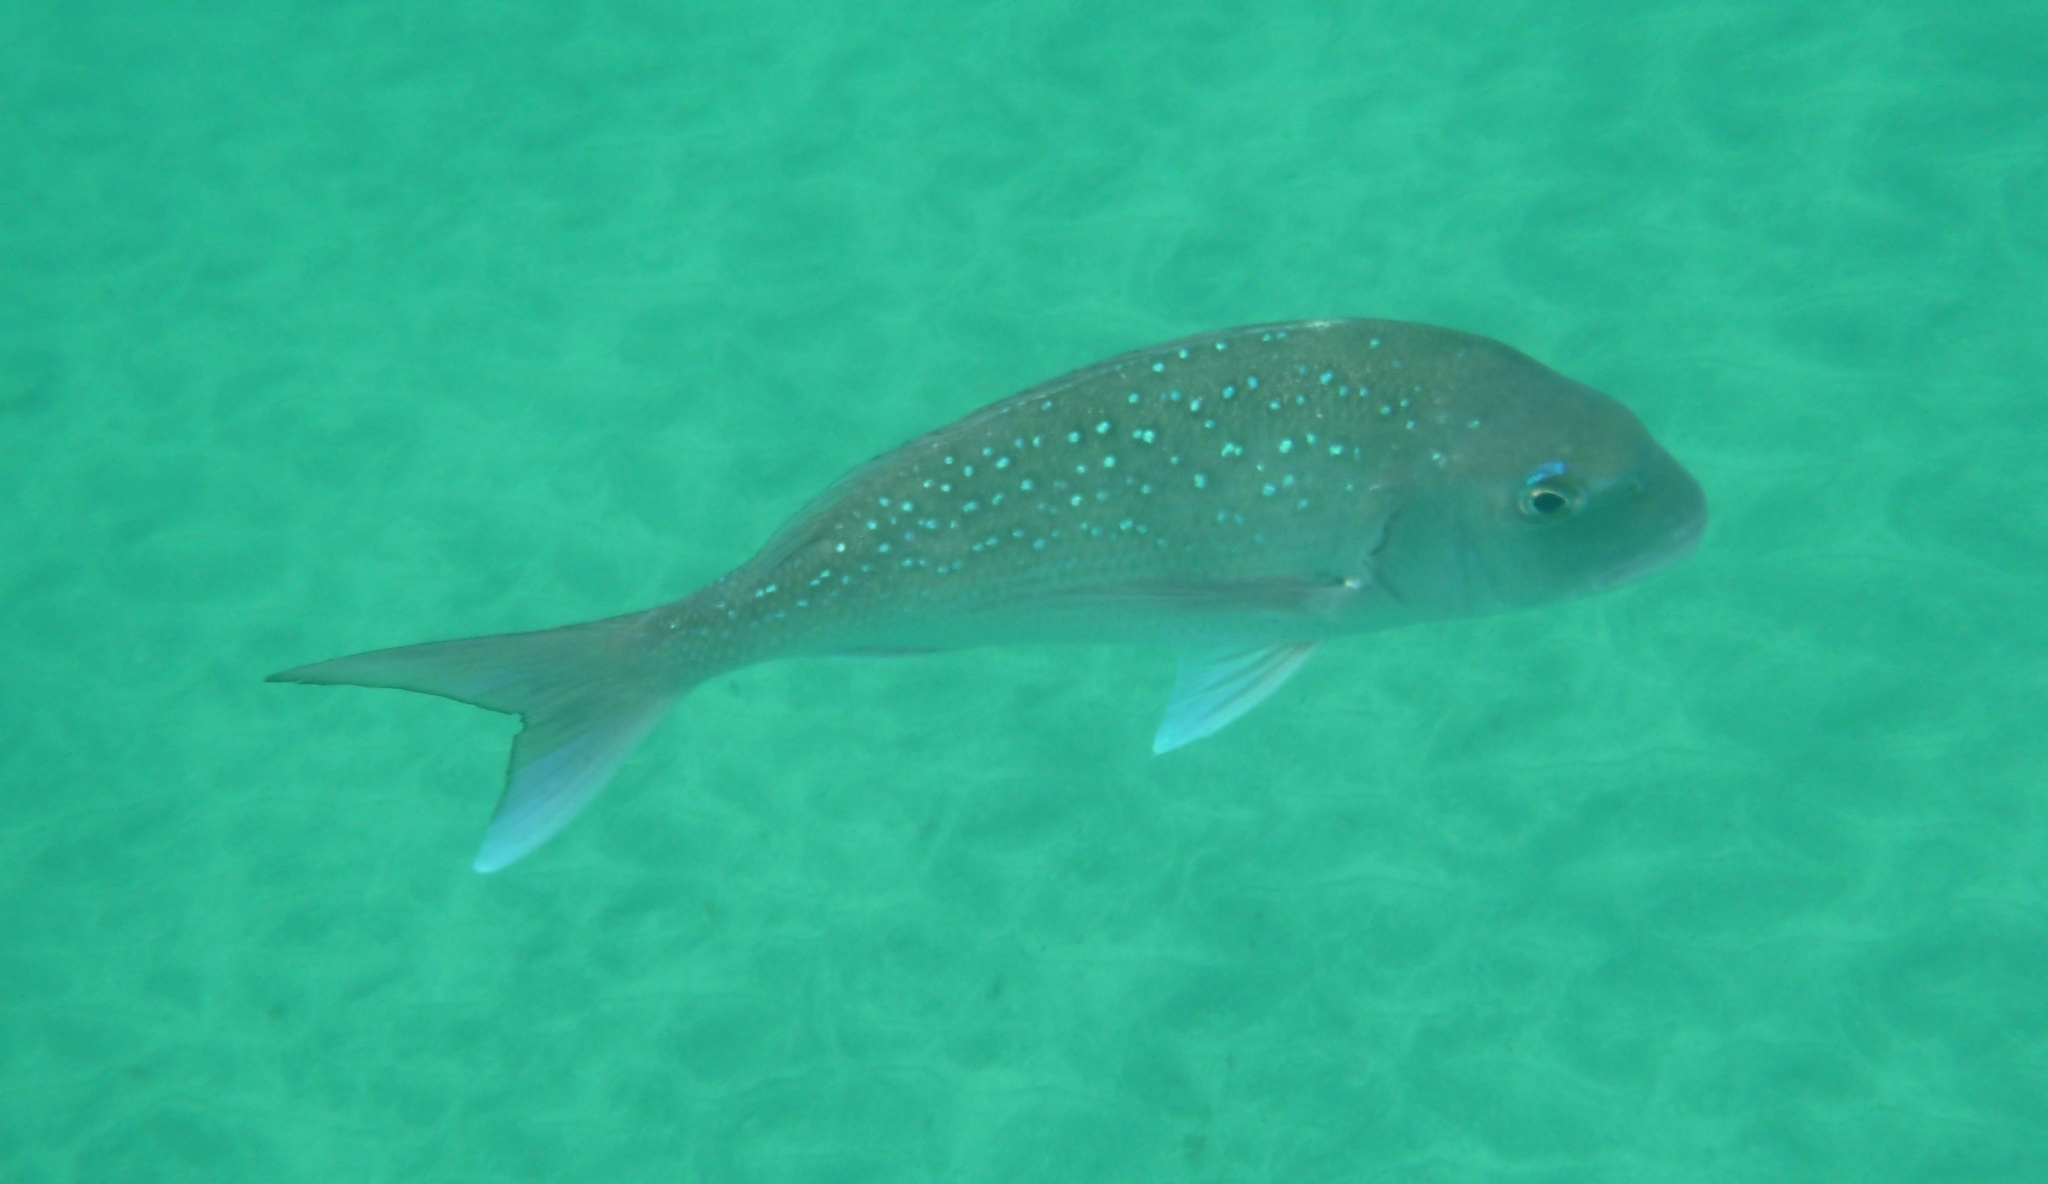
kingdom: Animalia
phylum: Chordata
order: Perciformes
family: Sparidae
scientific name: Sparidae
